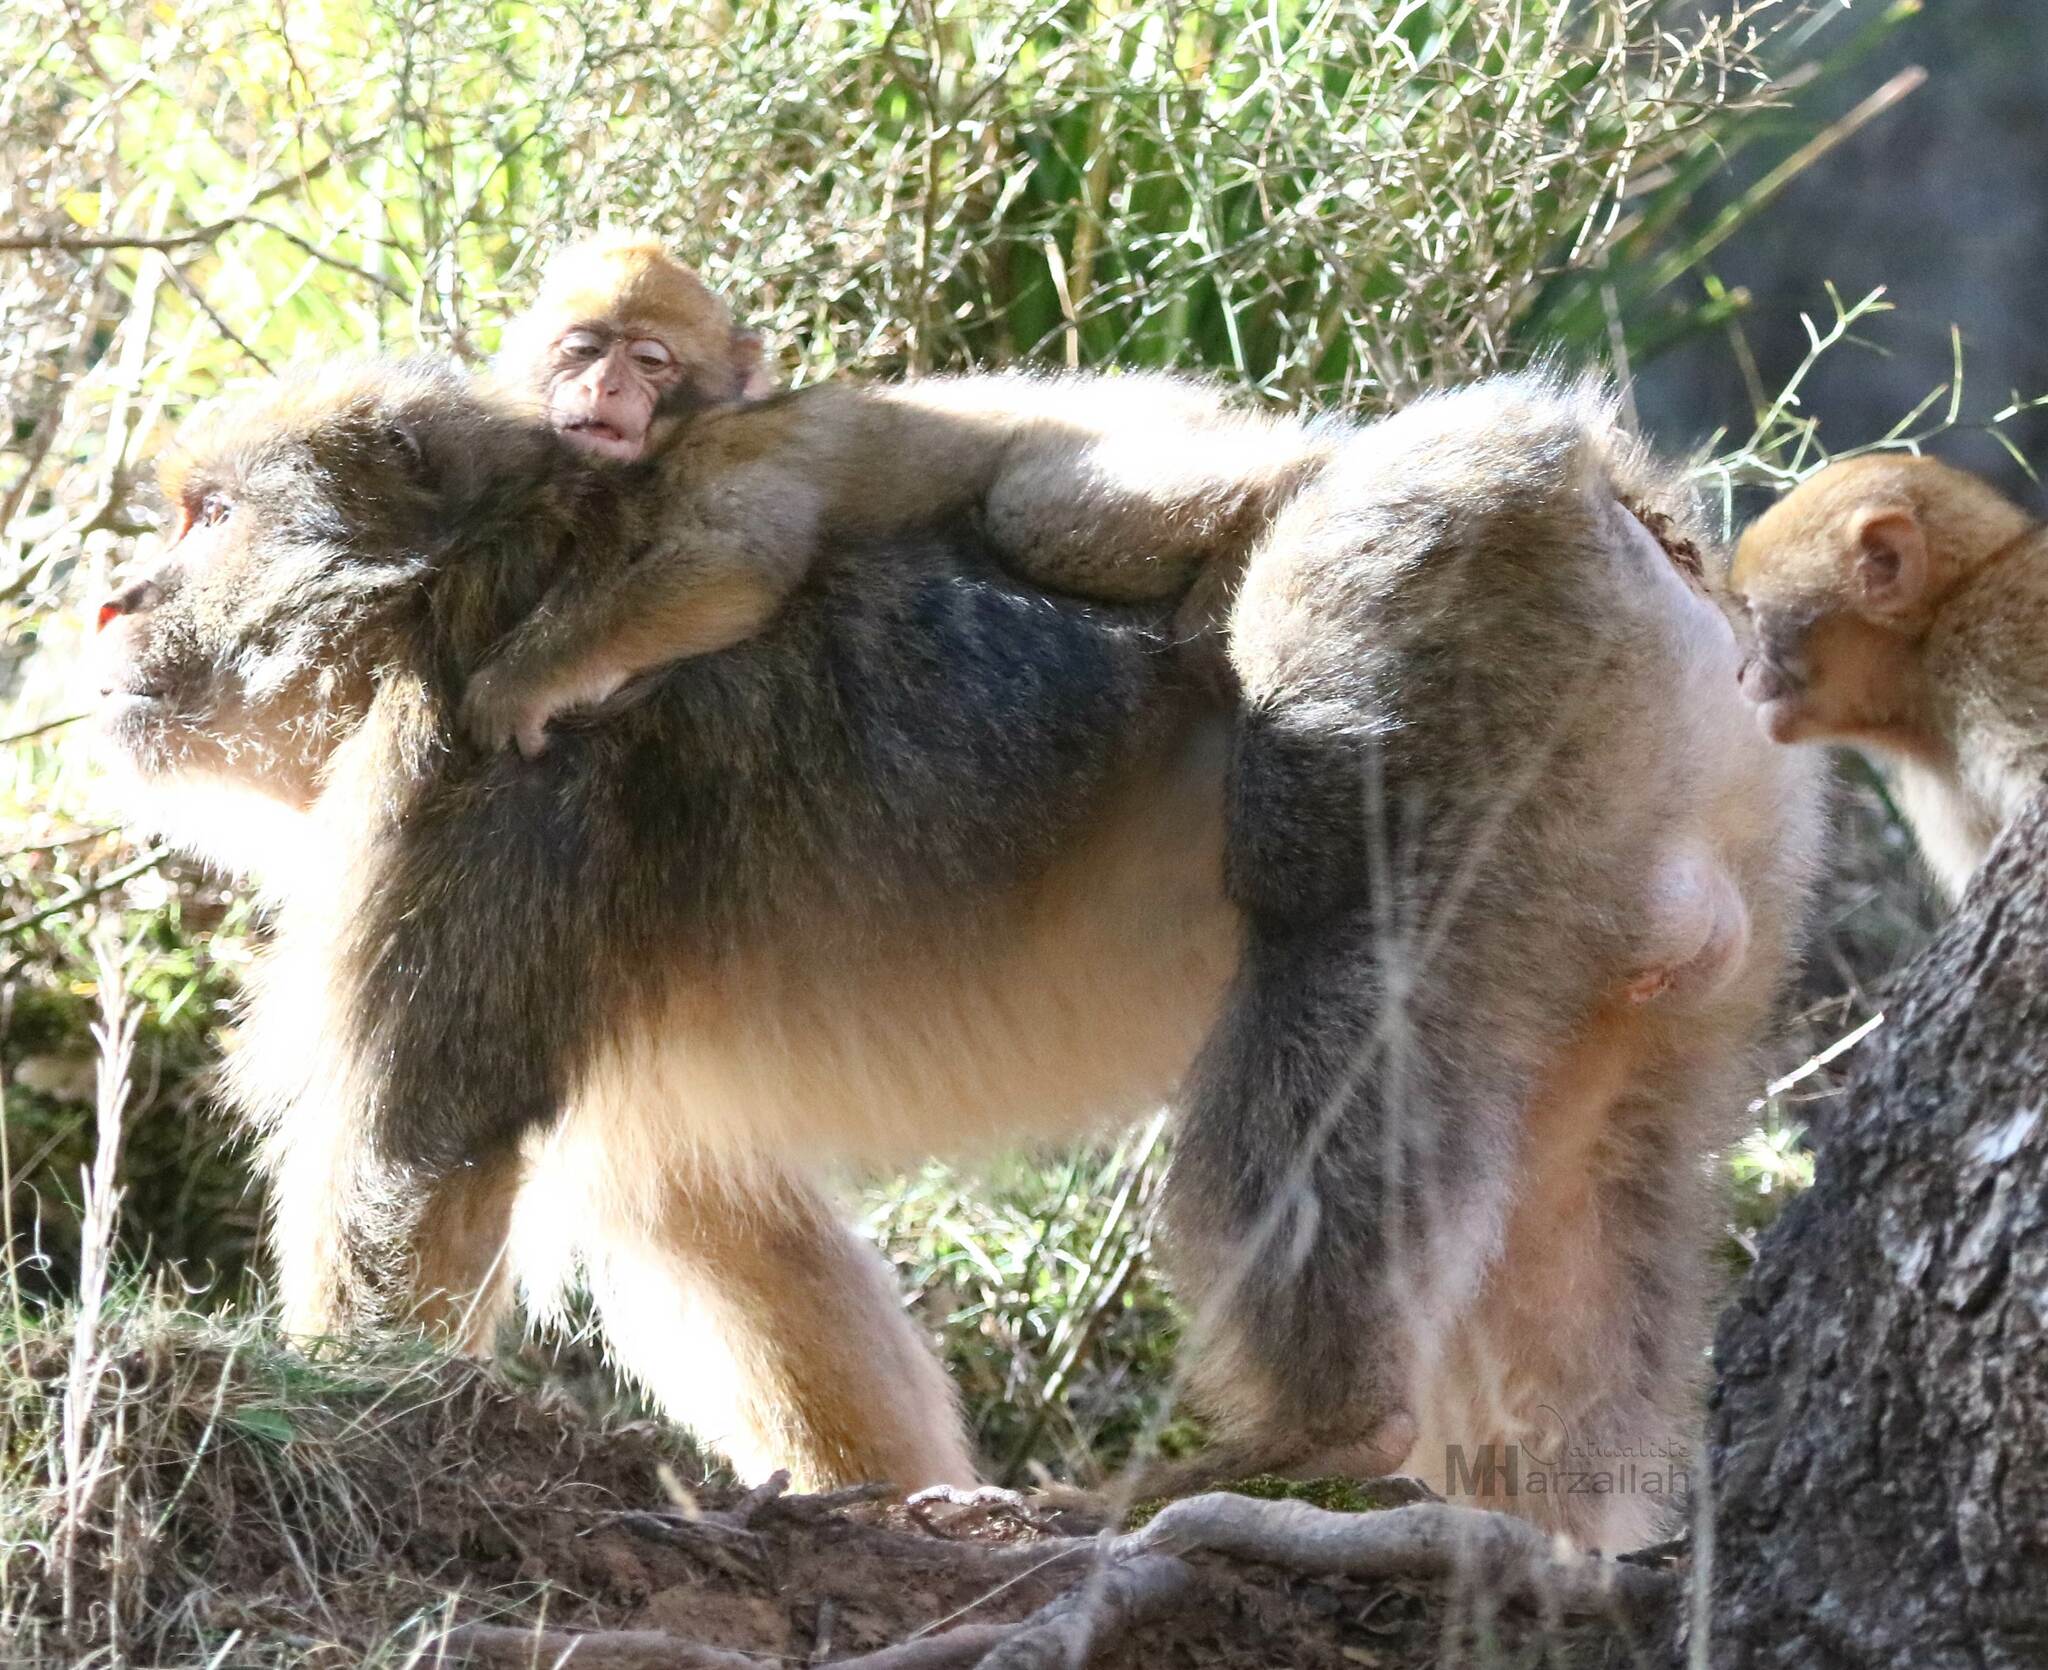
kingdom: Animalia
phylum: Chordata
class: Mammalia
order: Primates
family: Cercopithecidae
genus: Macaca
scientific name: Macaca sylvanus
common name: Barbary macaque
